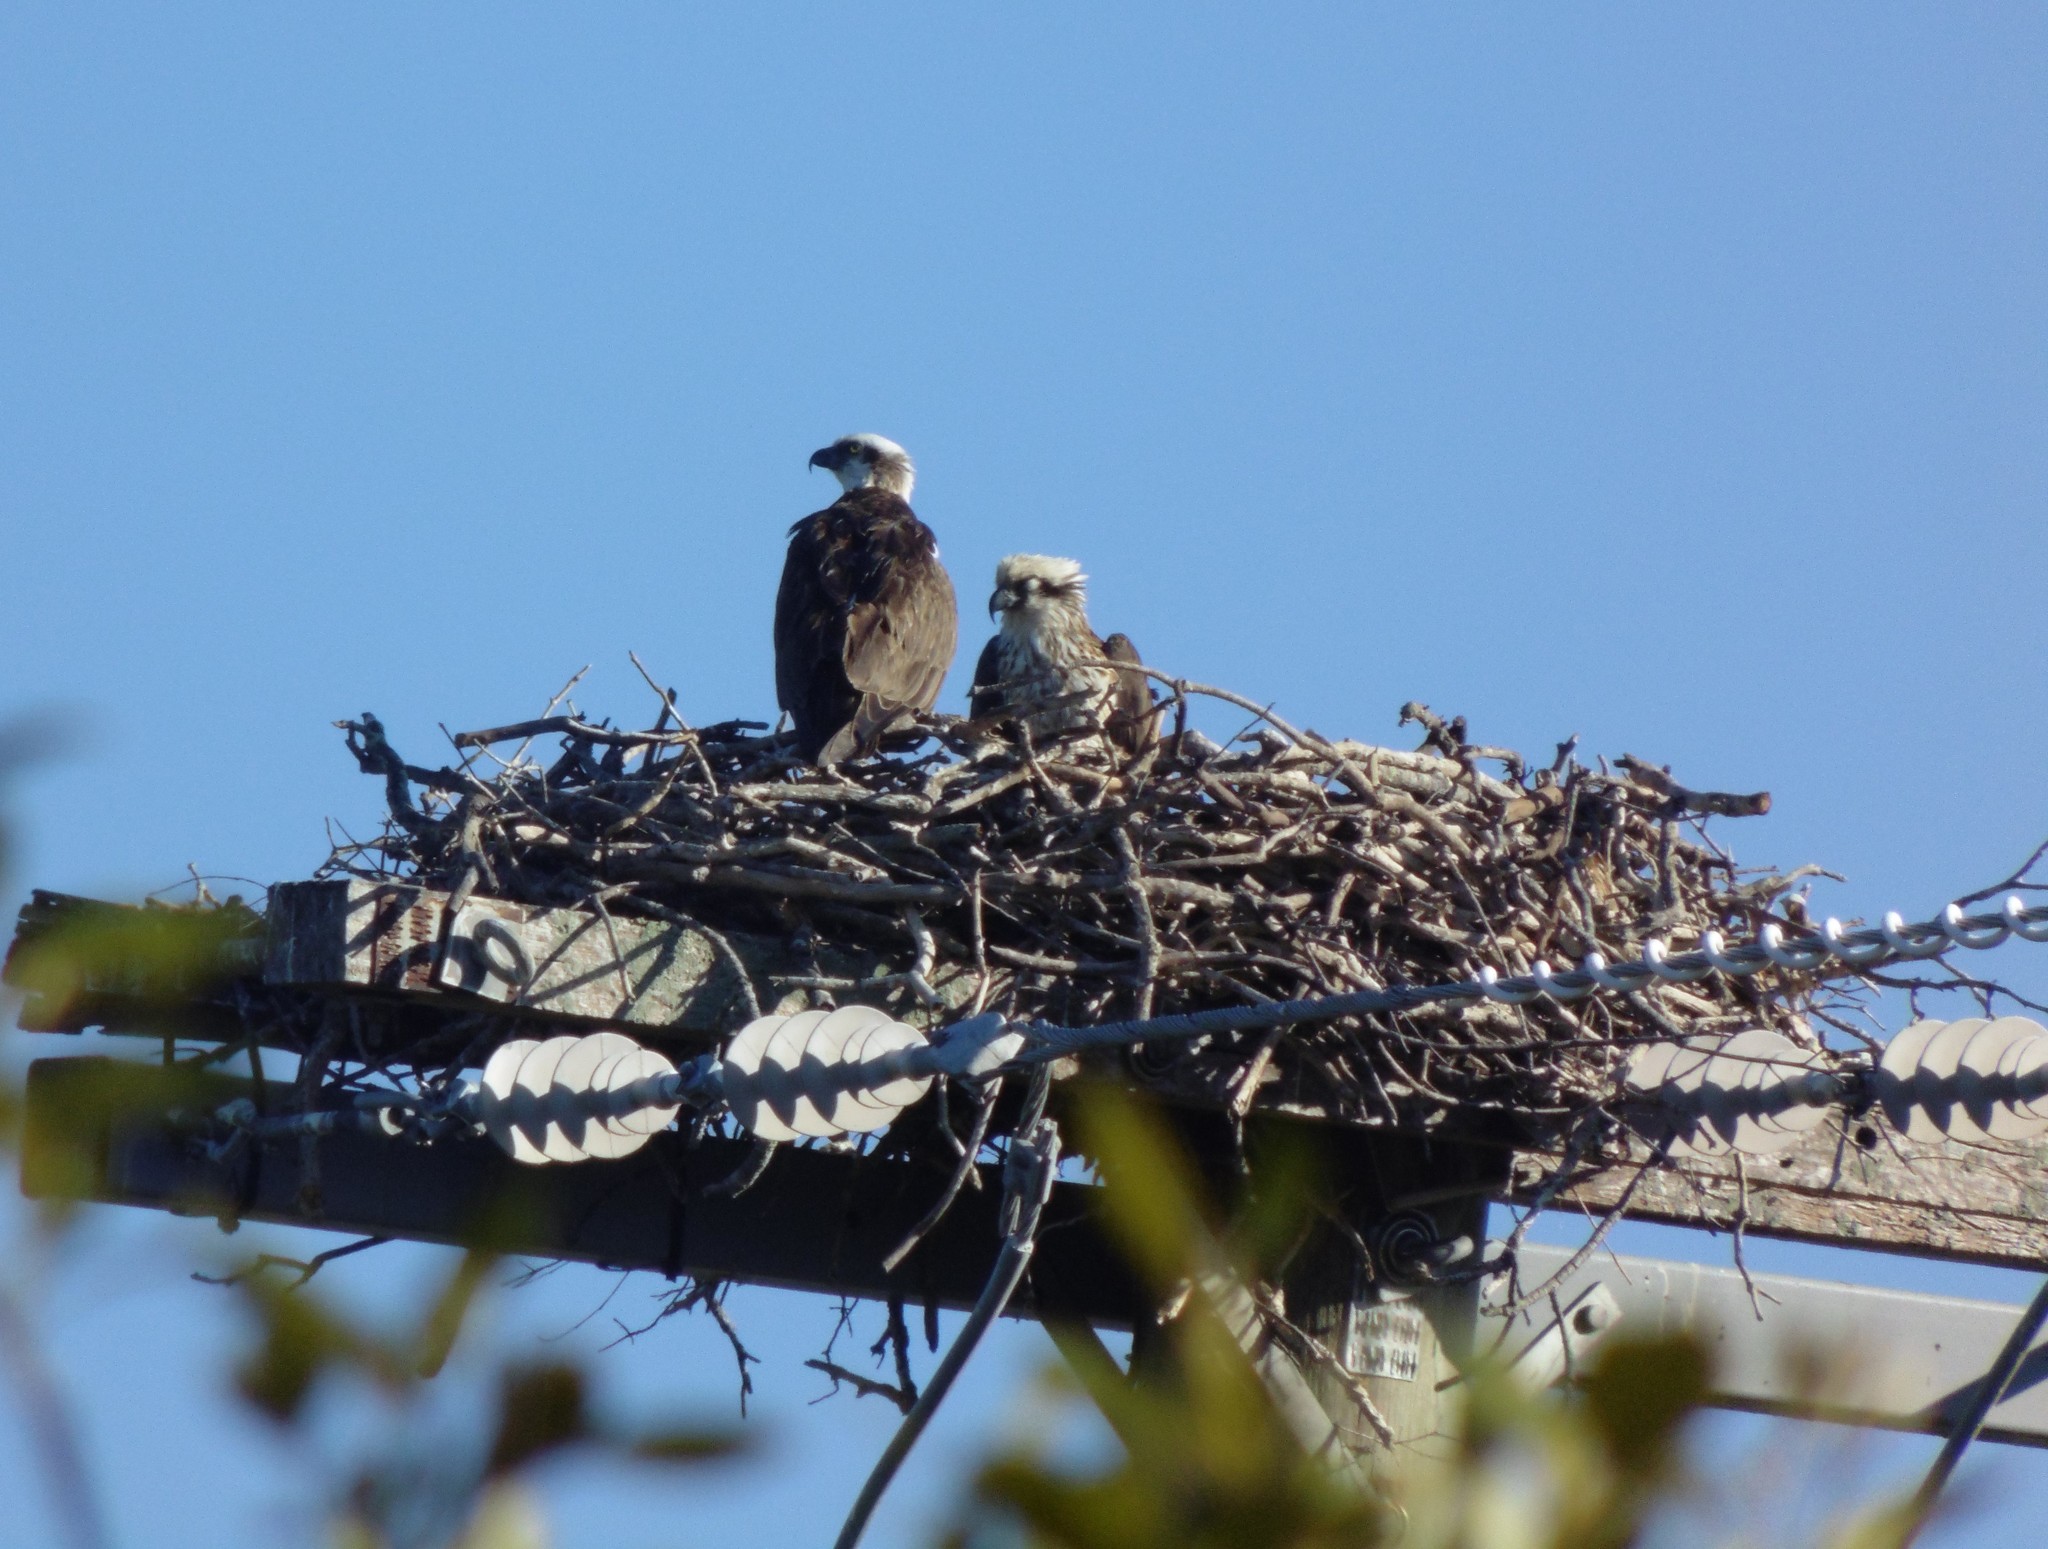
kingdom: Animalia
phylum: Chordata
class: Aves
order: Accipitriformes
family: Pandionidae
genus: Pandion
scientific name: Pandion haliaetus
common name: Osprey
